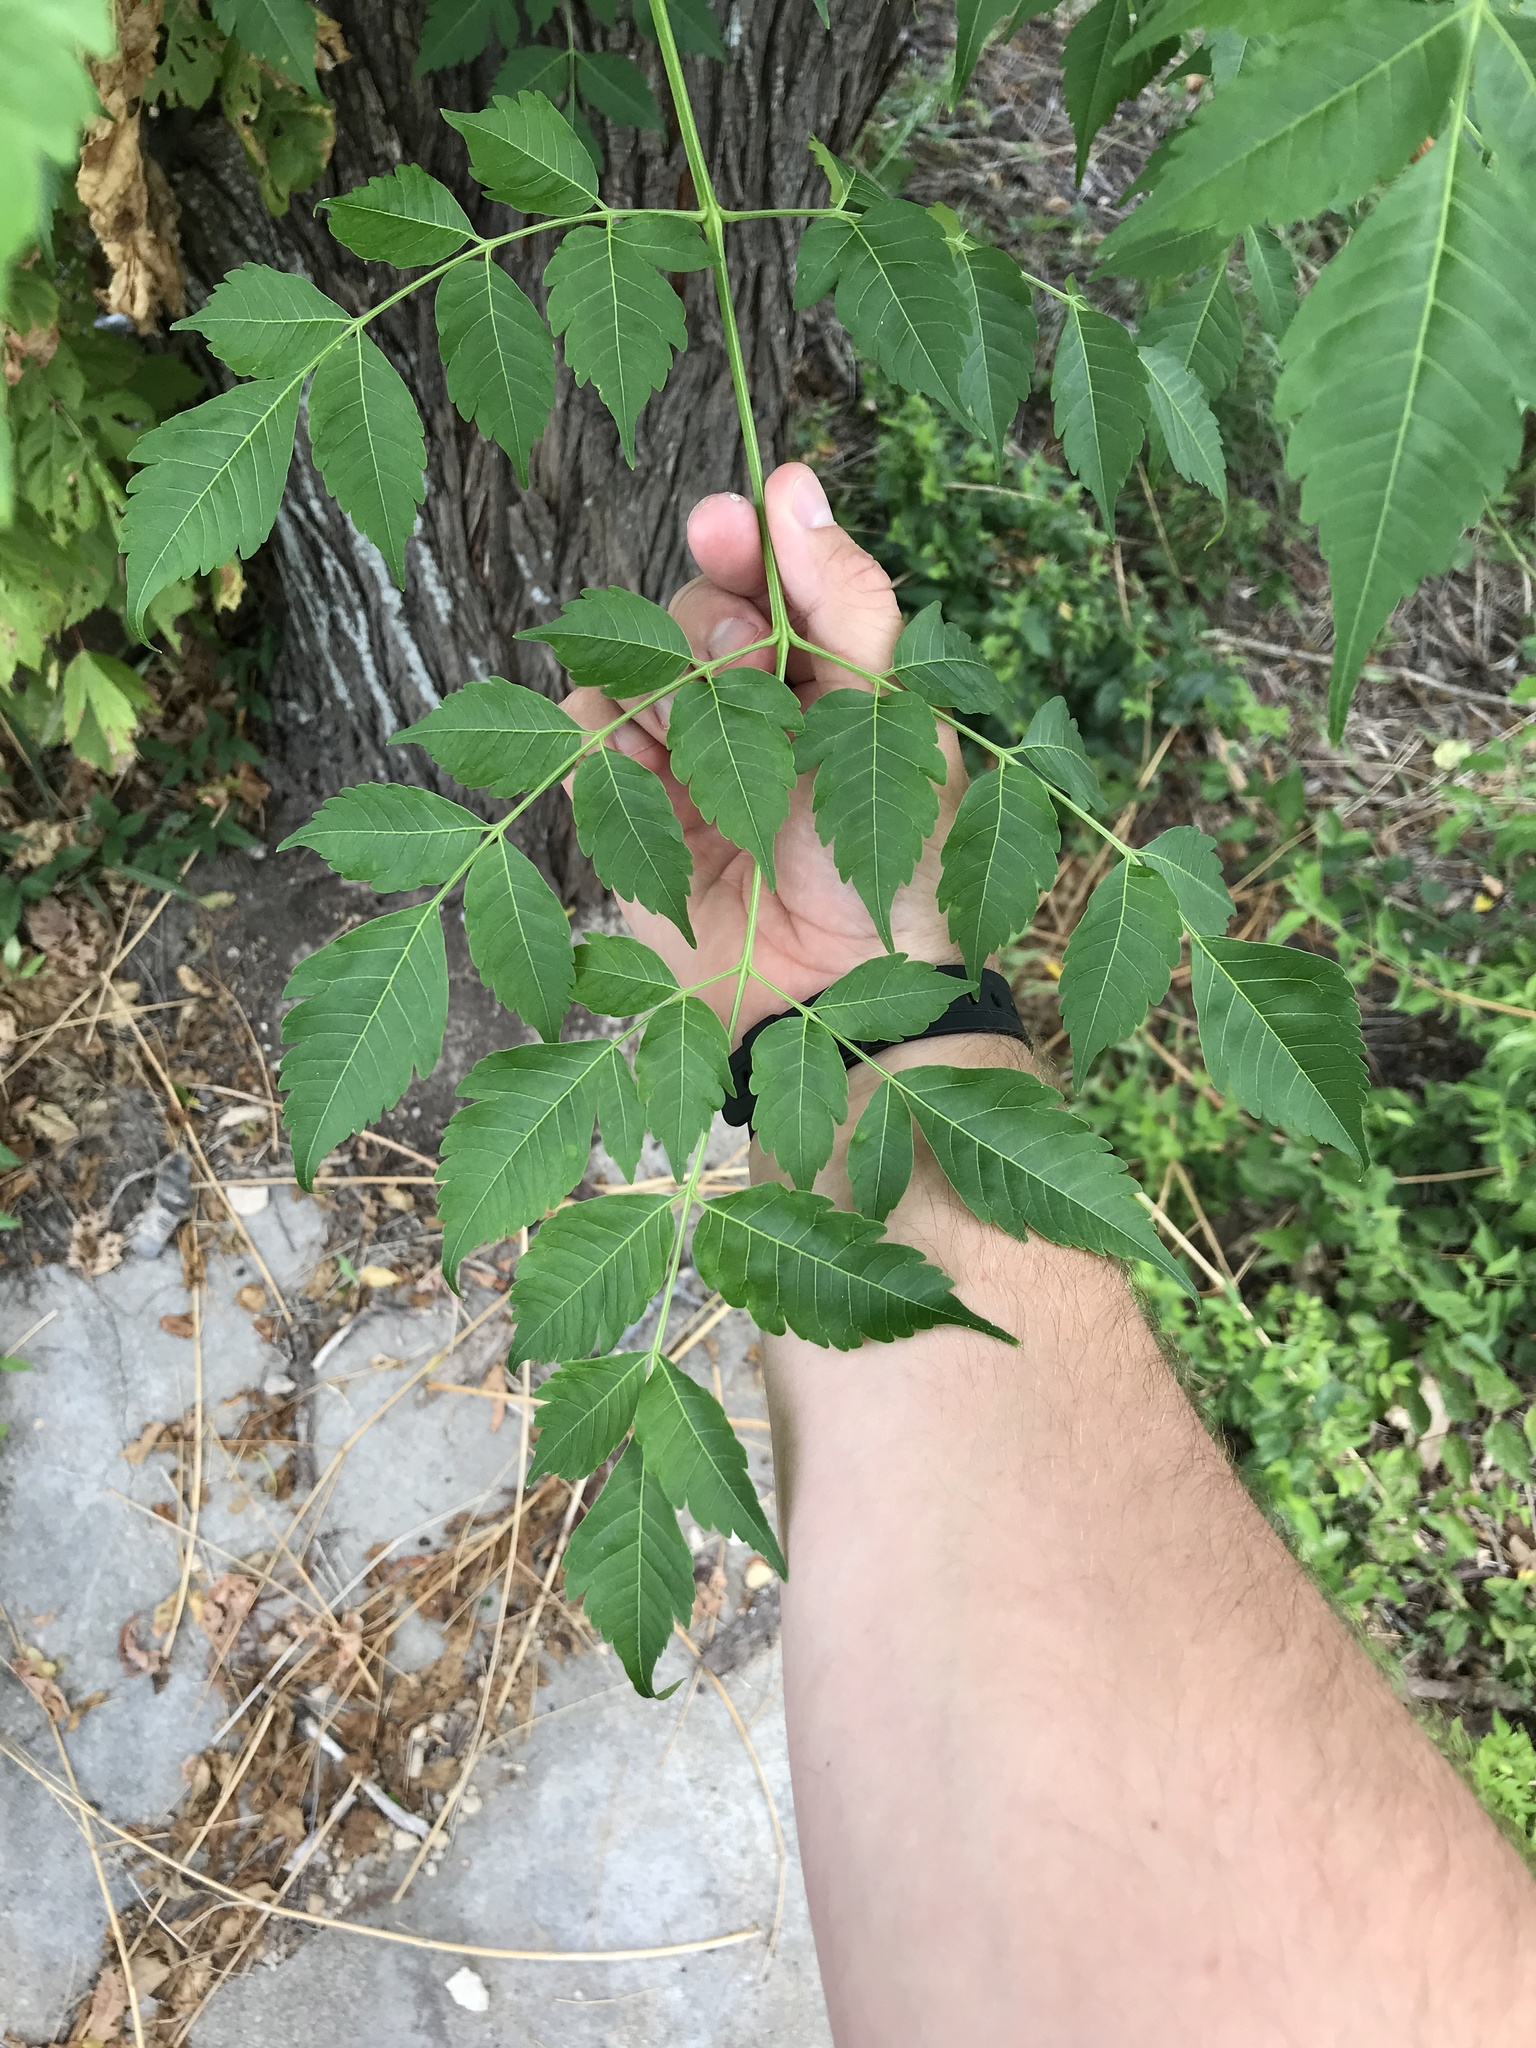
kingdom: Plantae
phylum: Tracheophyta
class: Magnoliopsida
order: Sapindales
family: Meliaceae
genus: Melia
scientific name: Melia azedarach
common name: Chinaberrytree
